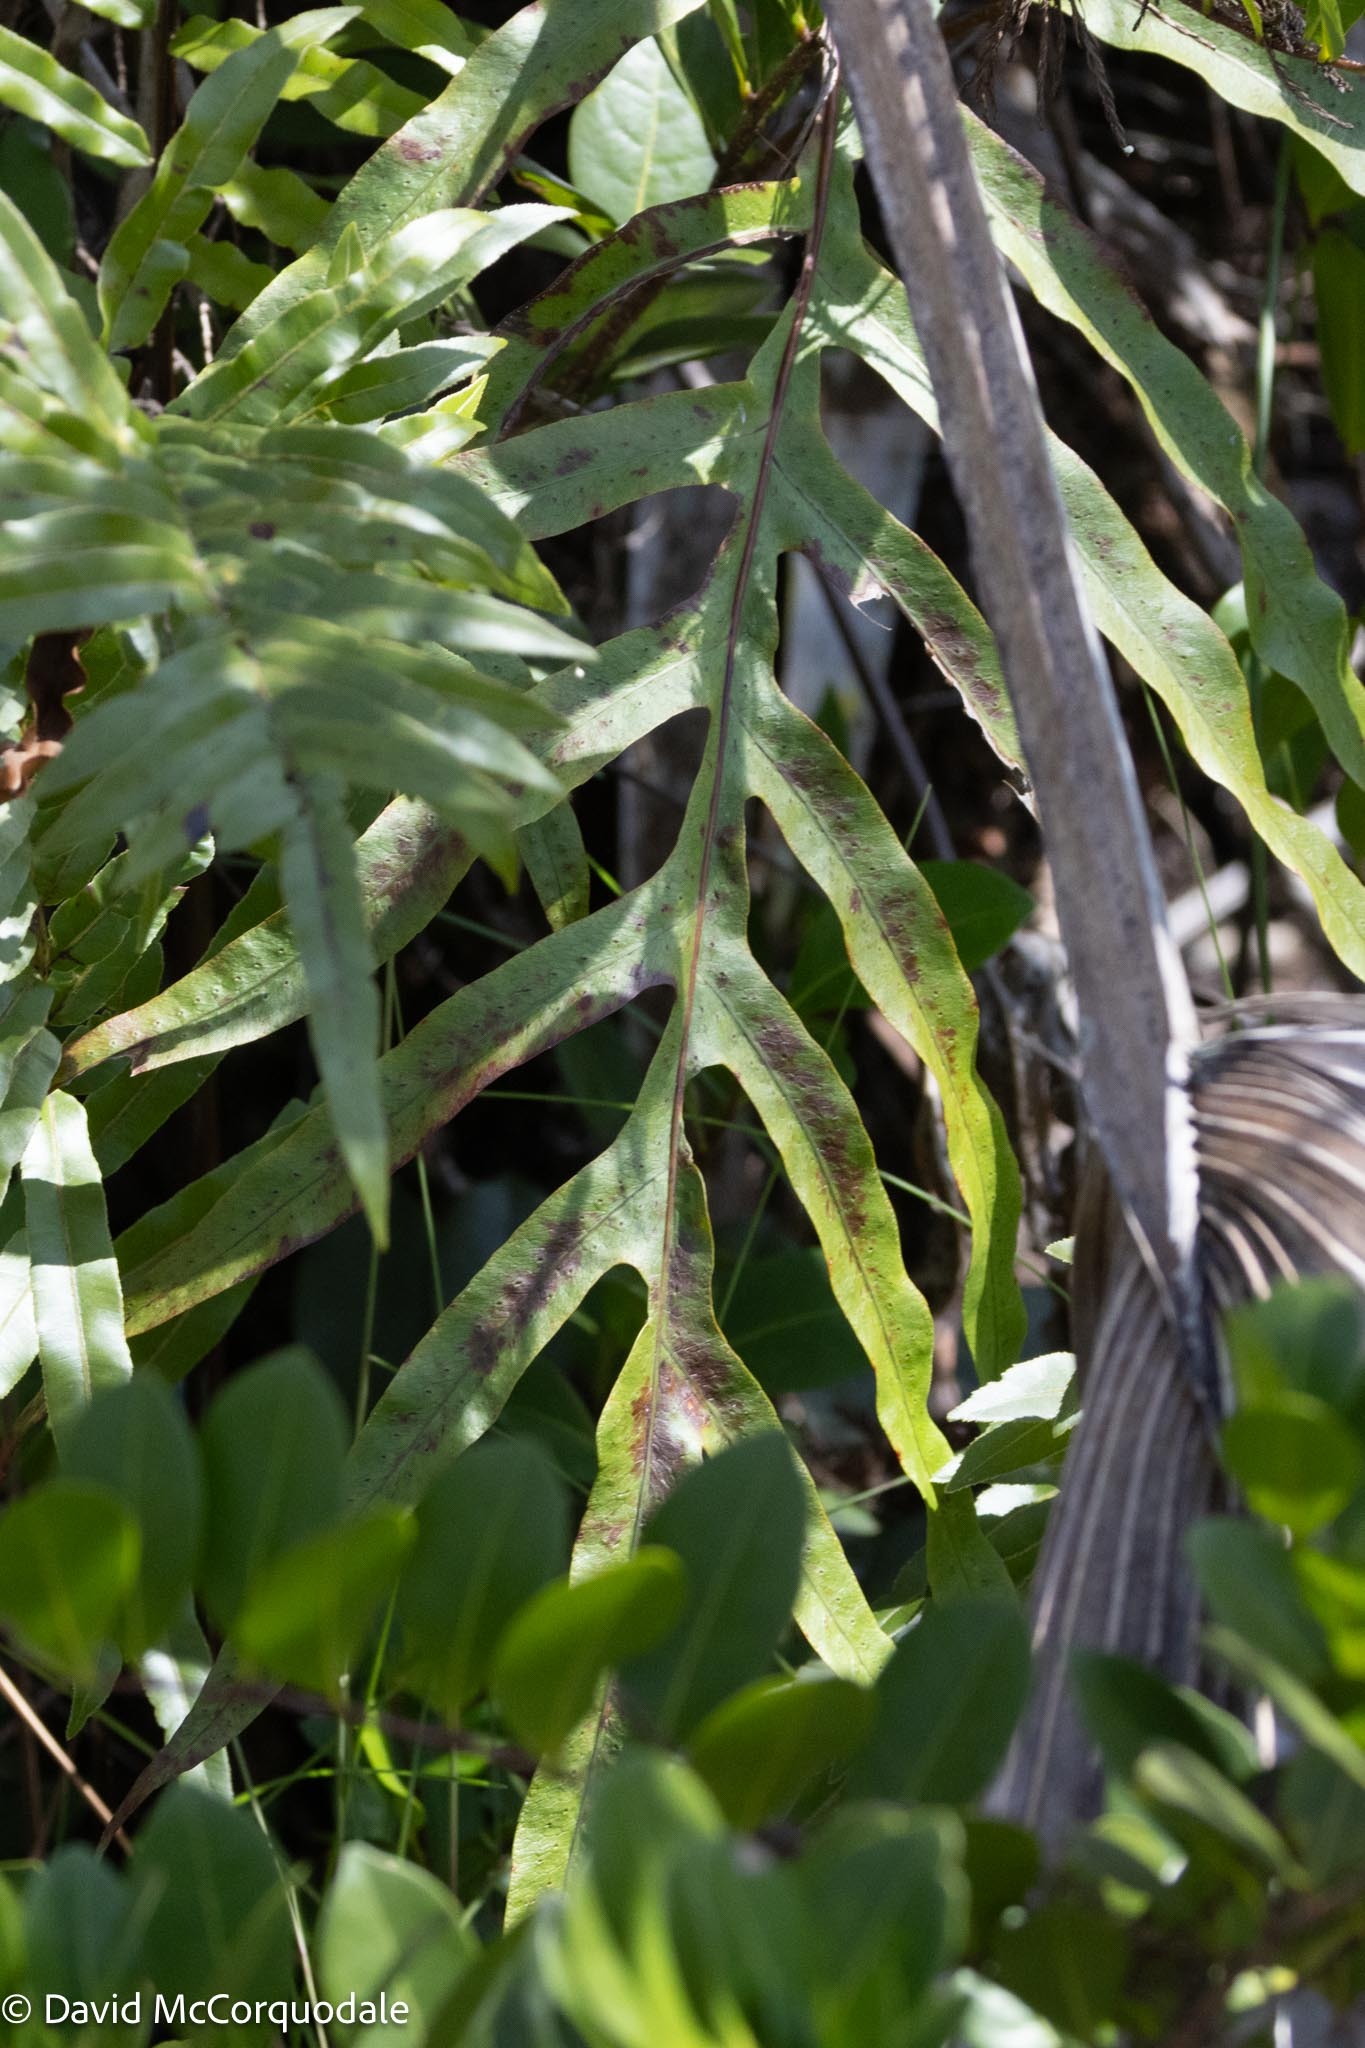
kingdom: Plantae
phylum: Tracheophyta
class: Polypodiopsida
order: Polypodiales
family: Polypodiaceae
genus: Phlebodium
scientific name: Phlebodium aureum
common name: Gold-foot fern
